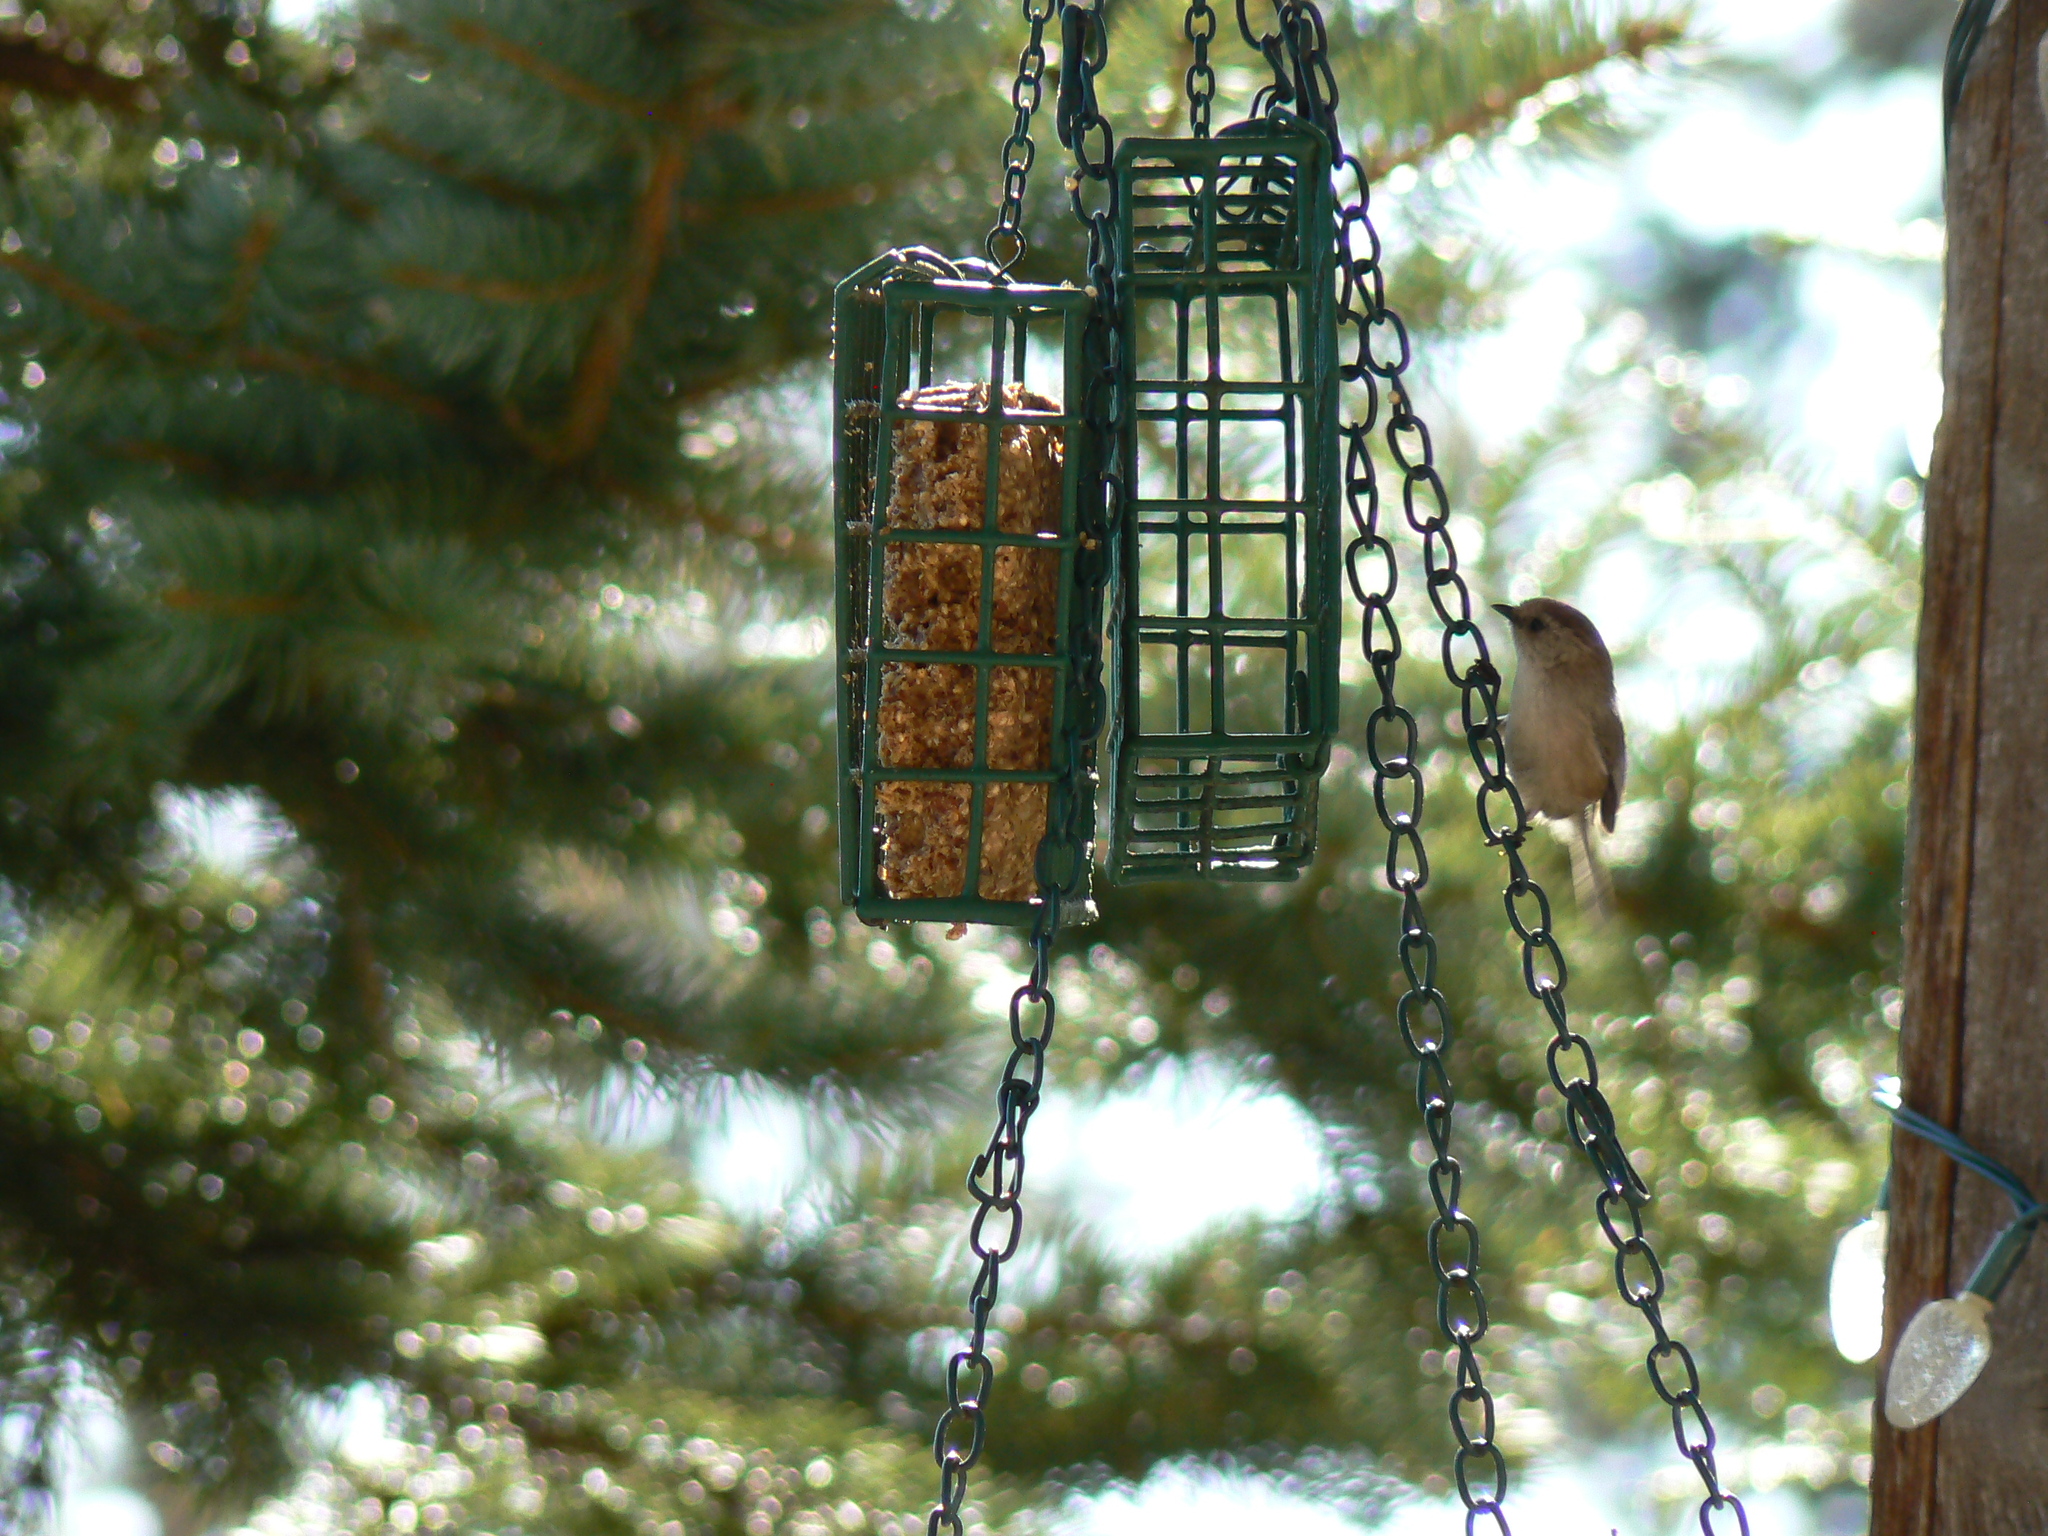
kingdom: Animalia
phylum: Chordata
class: Aves
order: Passeriformes
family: Aegithalidae
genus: Psaltriparus
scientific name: Psaltriparus minimus
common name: American bushtit
